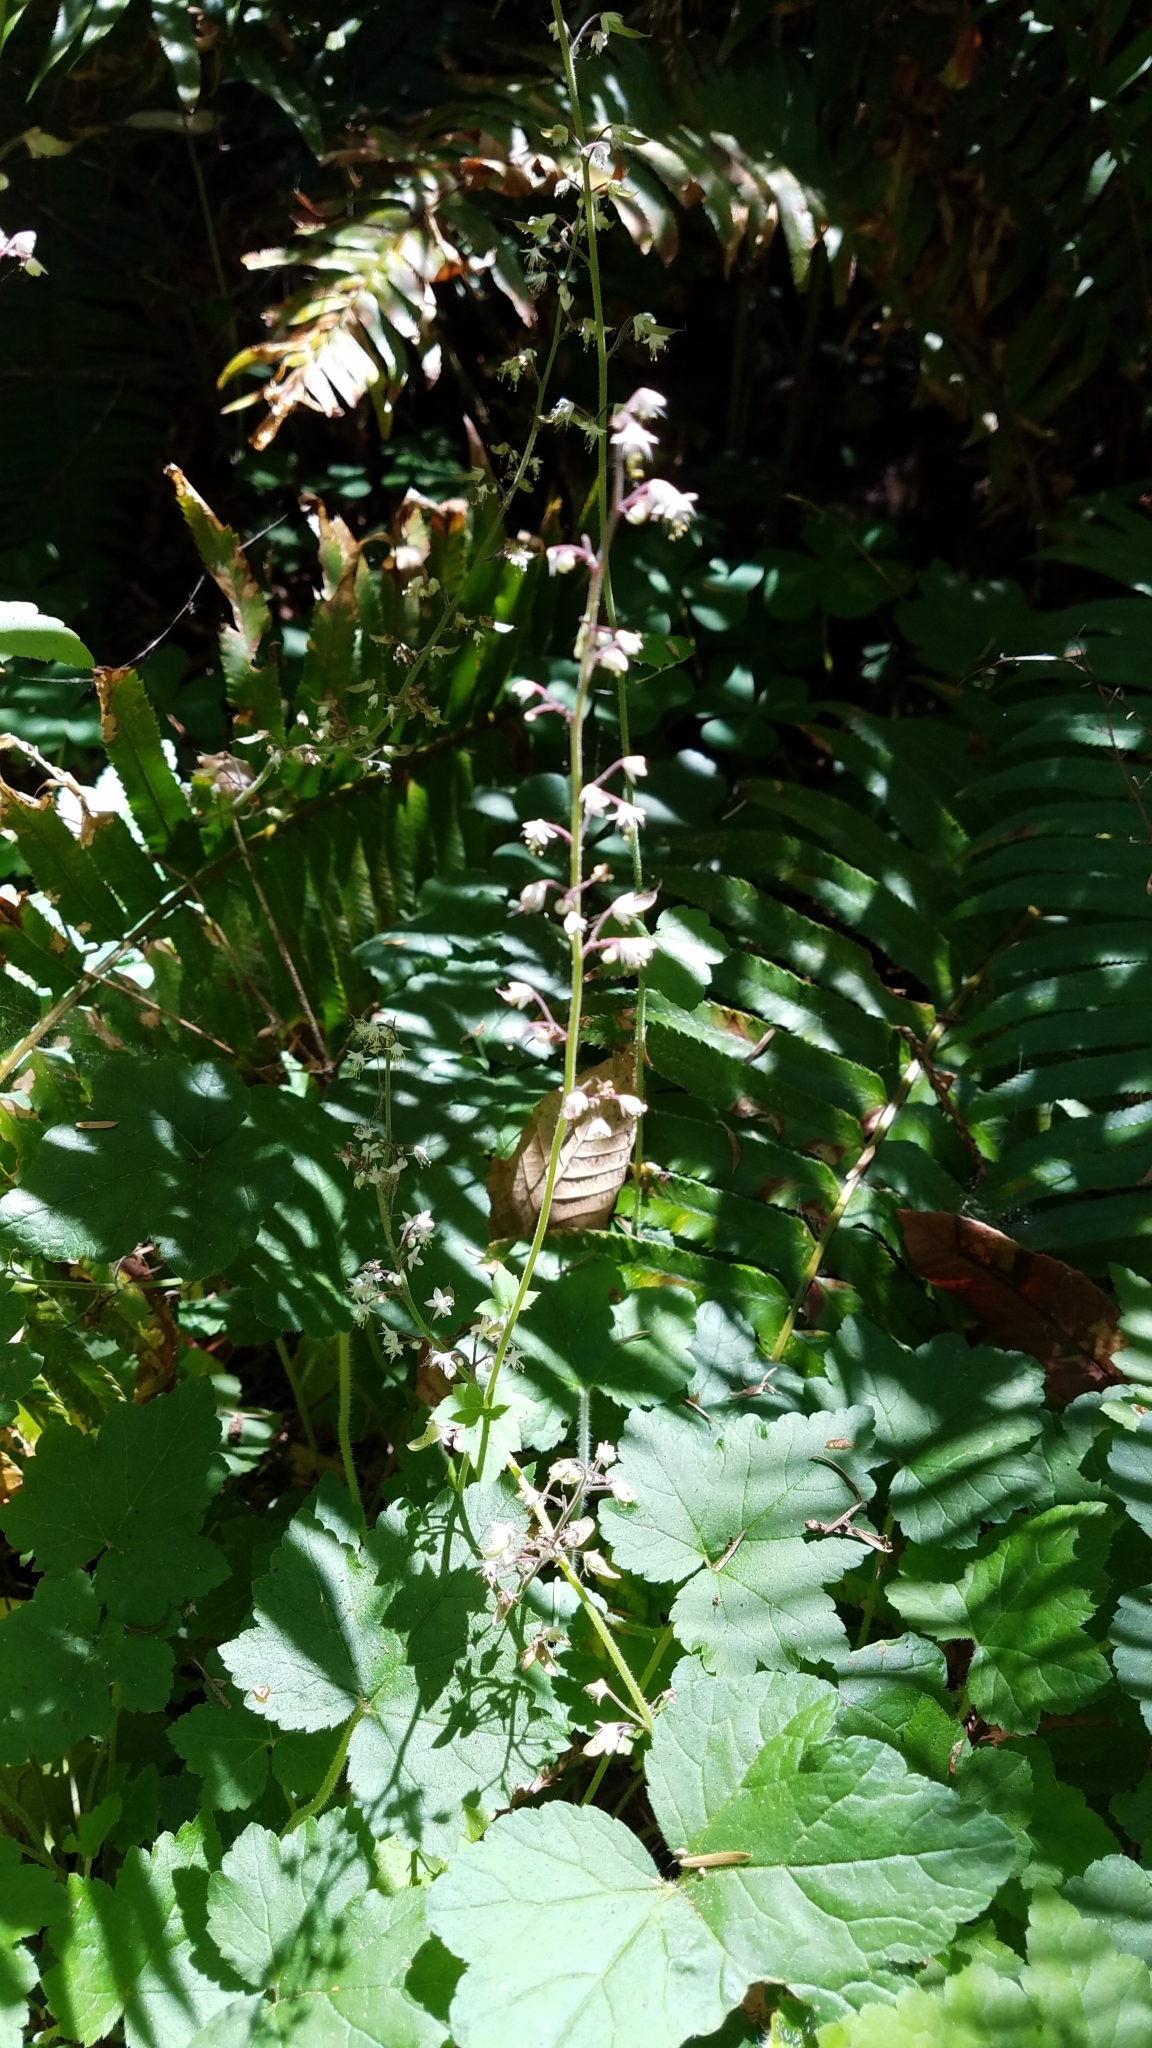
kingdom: Plantae
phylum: Tracheophyta
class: Magnoliopsida
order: Saxifragales
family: Saxifragaceae
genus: Tiarella
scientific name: Tiarella trifoliata
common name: Sugar-scoop
